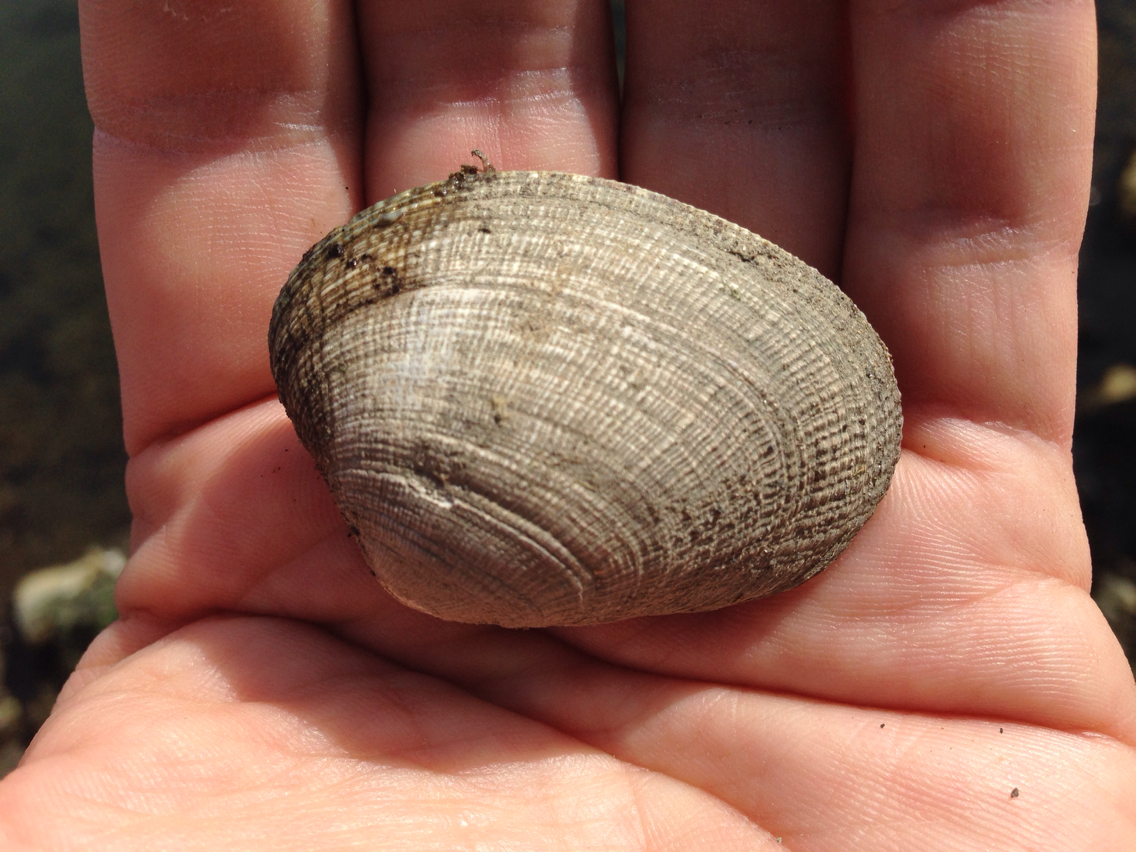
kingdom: Animalia
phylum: Mollusca
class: Bivalvia
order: Venerida
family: Veneridae
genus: Ruditapes
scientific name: Ruditapes philippinarum
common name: Manila clam
